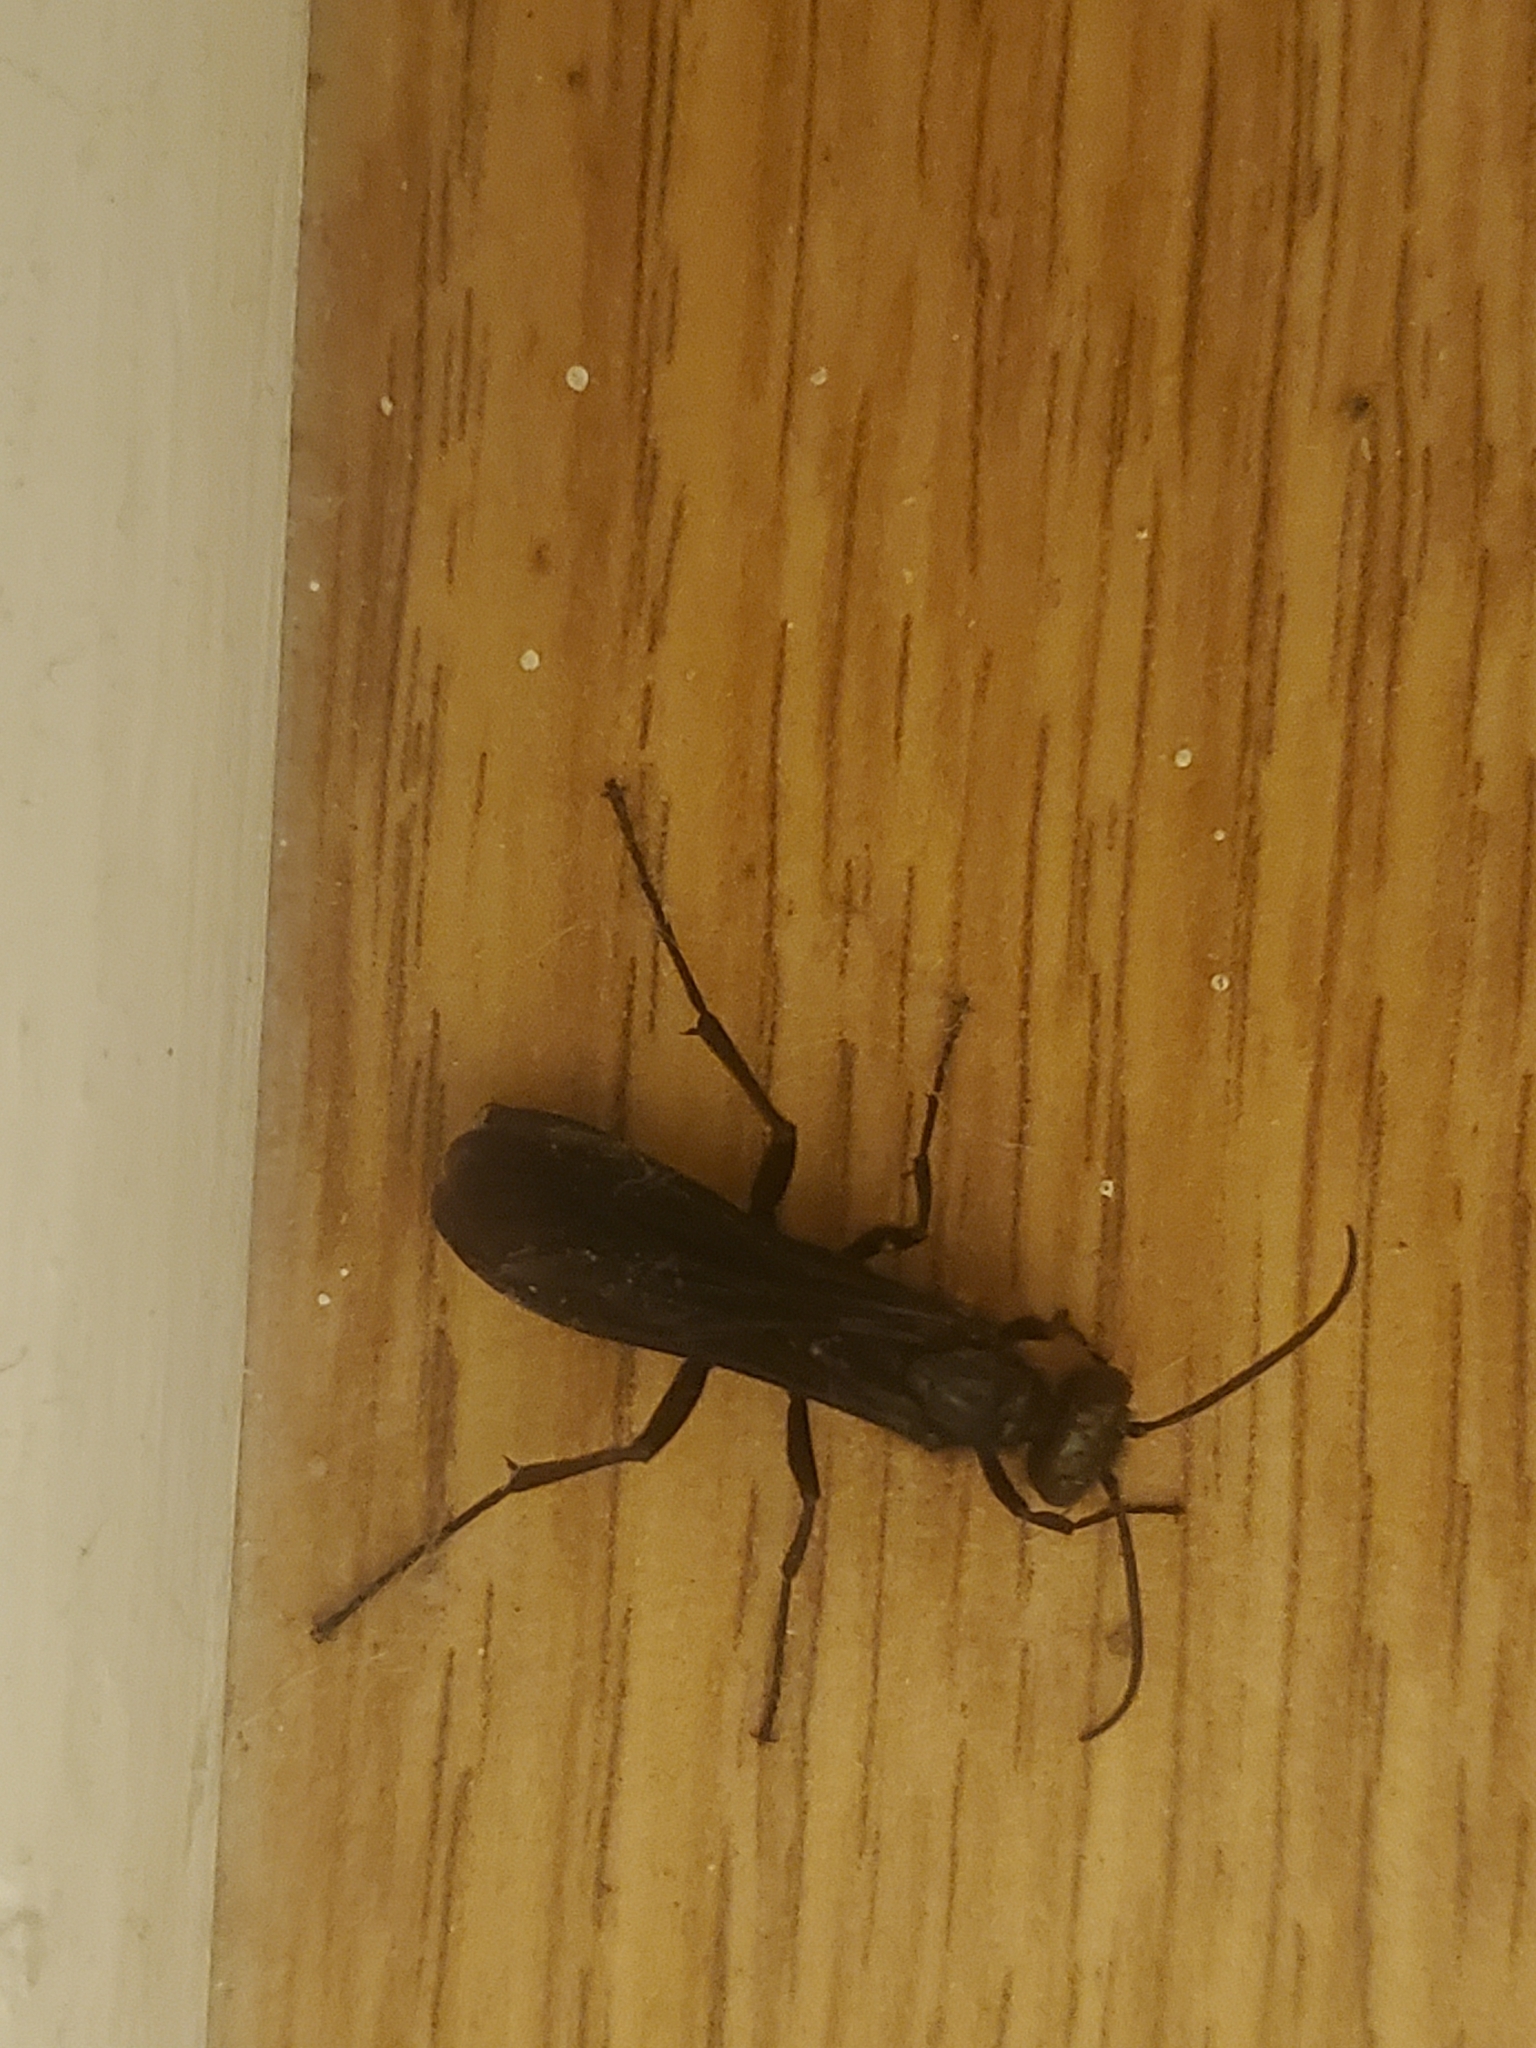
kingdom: Animalia
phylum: Arthropoda
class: Insecta
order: Hymenoptera
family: Sphecidae
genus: Chalybion
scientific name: Chalybion californicum
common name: Mud dauber
